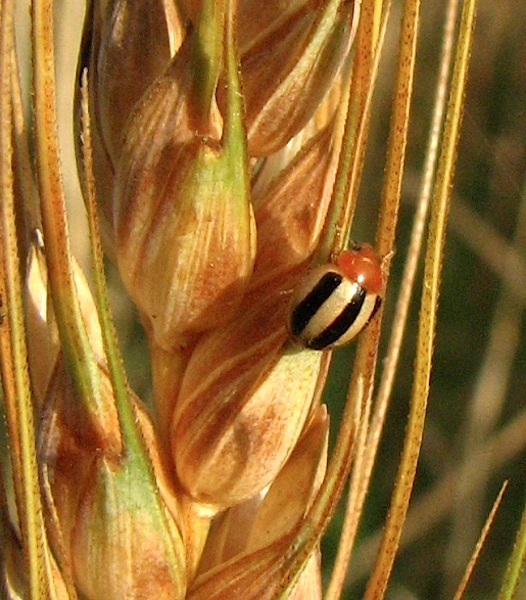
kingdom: Animalia
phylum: Arthropoda
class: Insecta
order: Coleoptera
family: Coccinellidae
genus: Brumoides
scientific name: Brumoides suturalis
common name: Threestriped lady beetle
